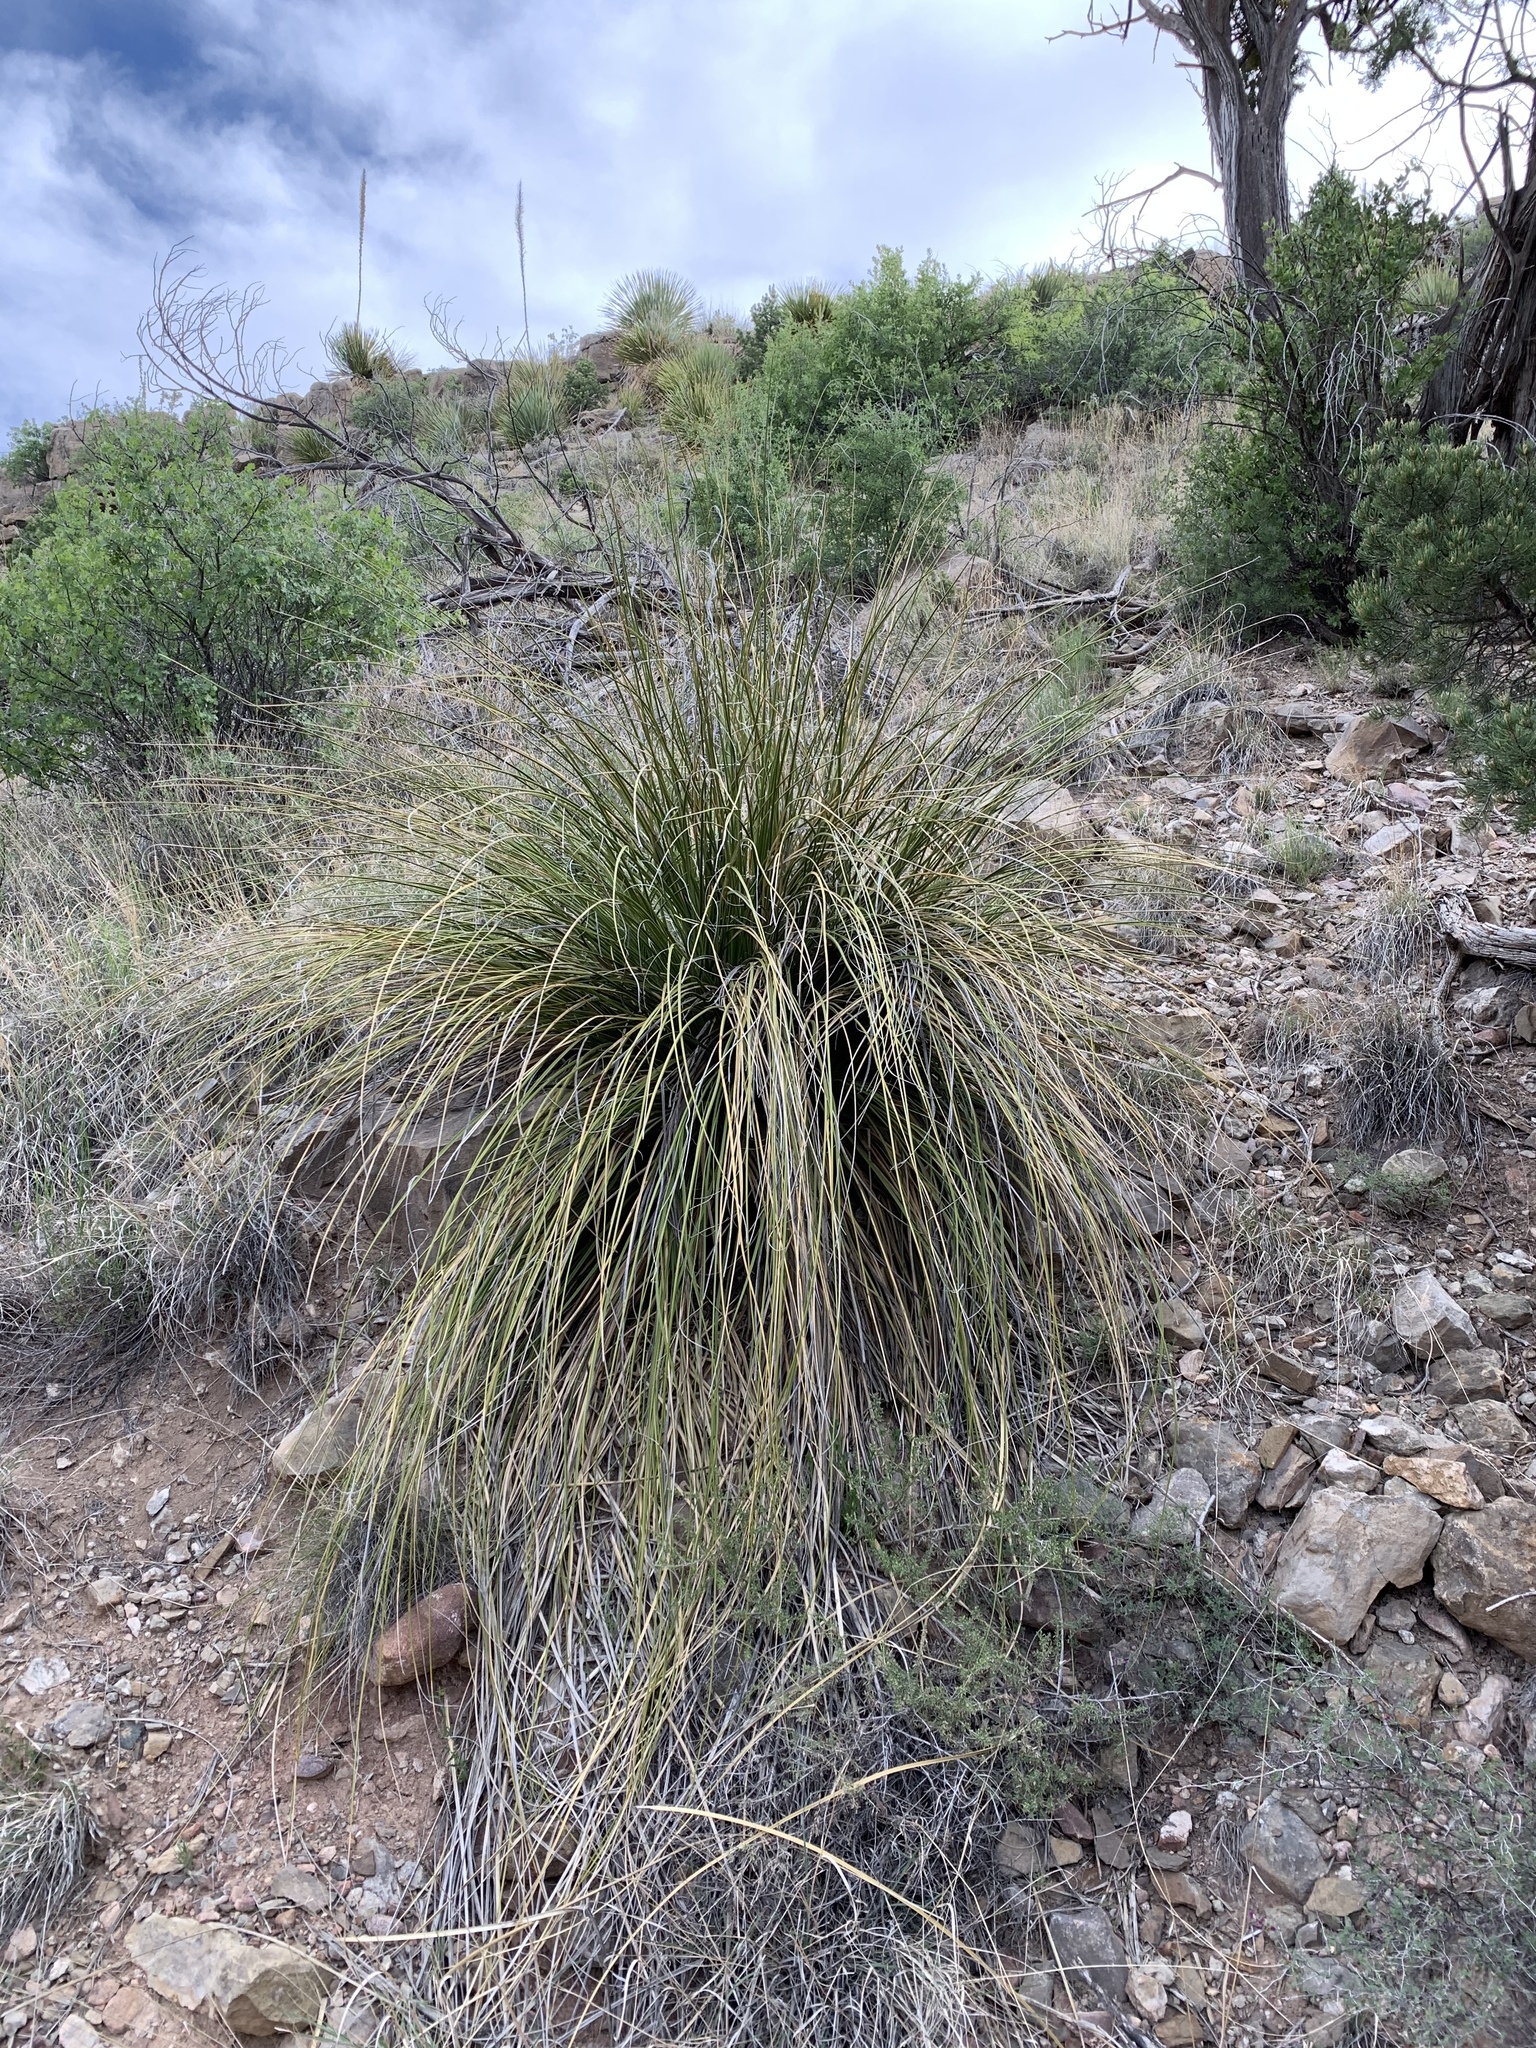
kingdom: Plantae
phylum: Tracheophyta
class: Liliopsida
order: Asparagales
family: Asparagaceae
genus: Nolina
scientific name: Nolina microcarpa
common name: Bear-grass
